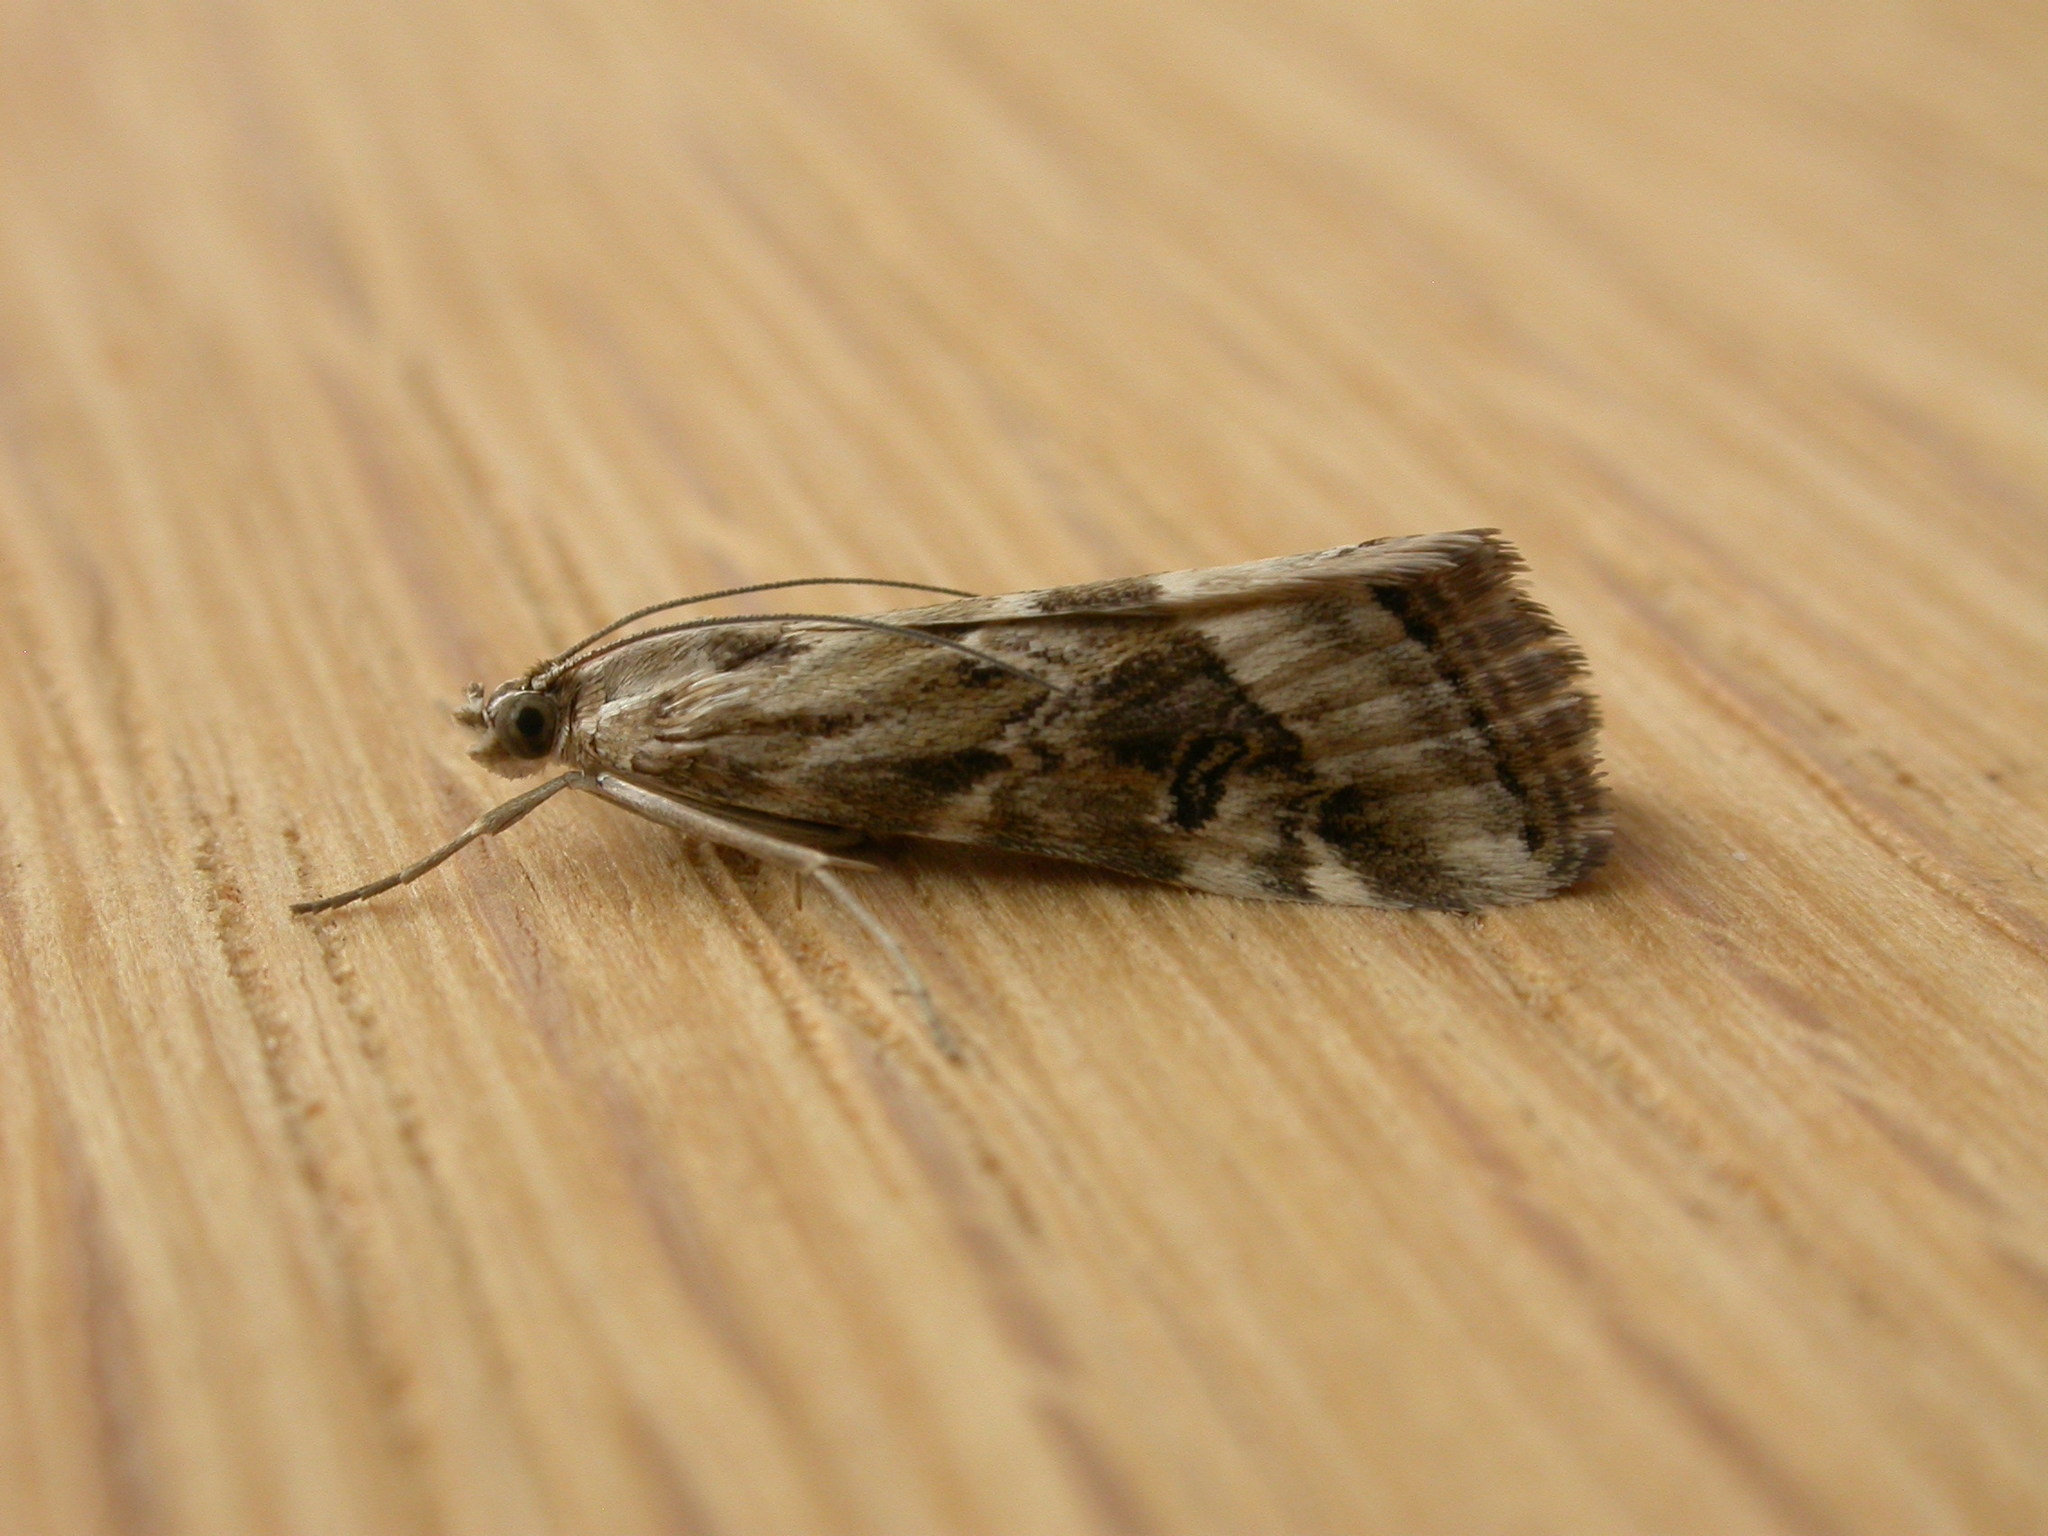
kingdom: Animalia
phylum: Arthropoda
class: Insecta
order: Lepidoptera
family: Crambidae
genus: Hellula
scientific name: Hellula hydralis
